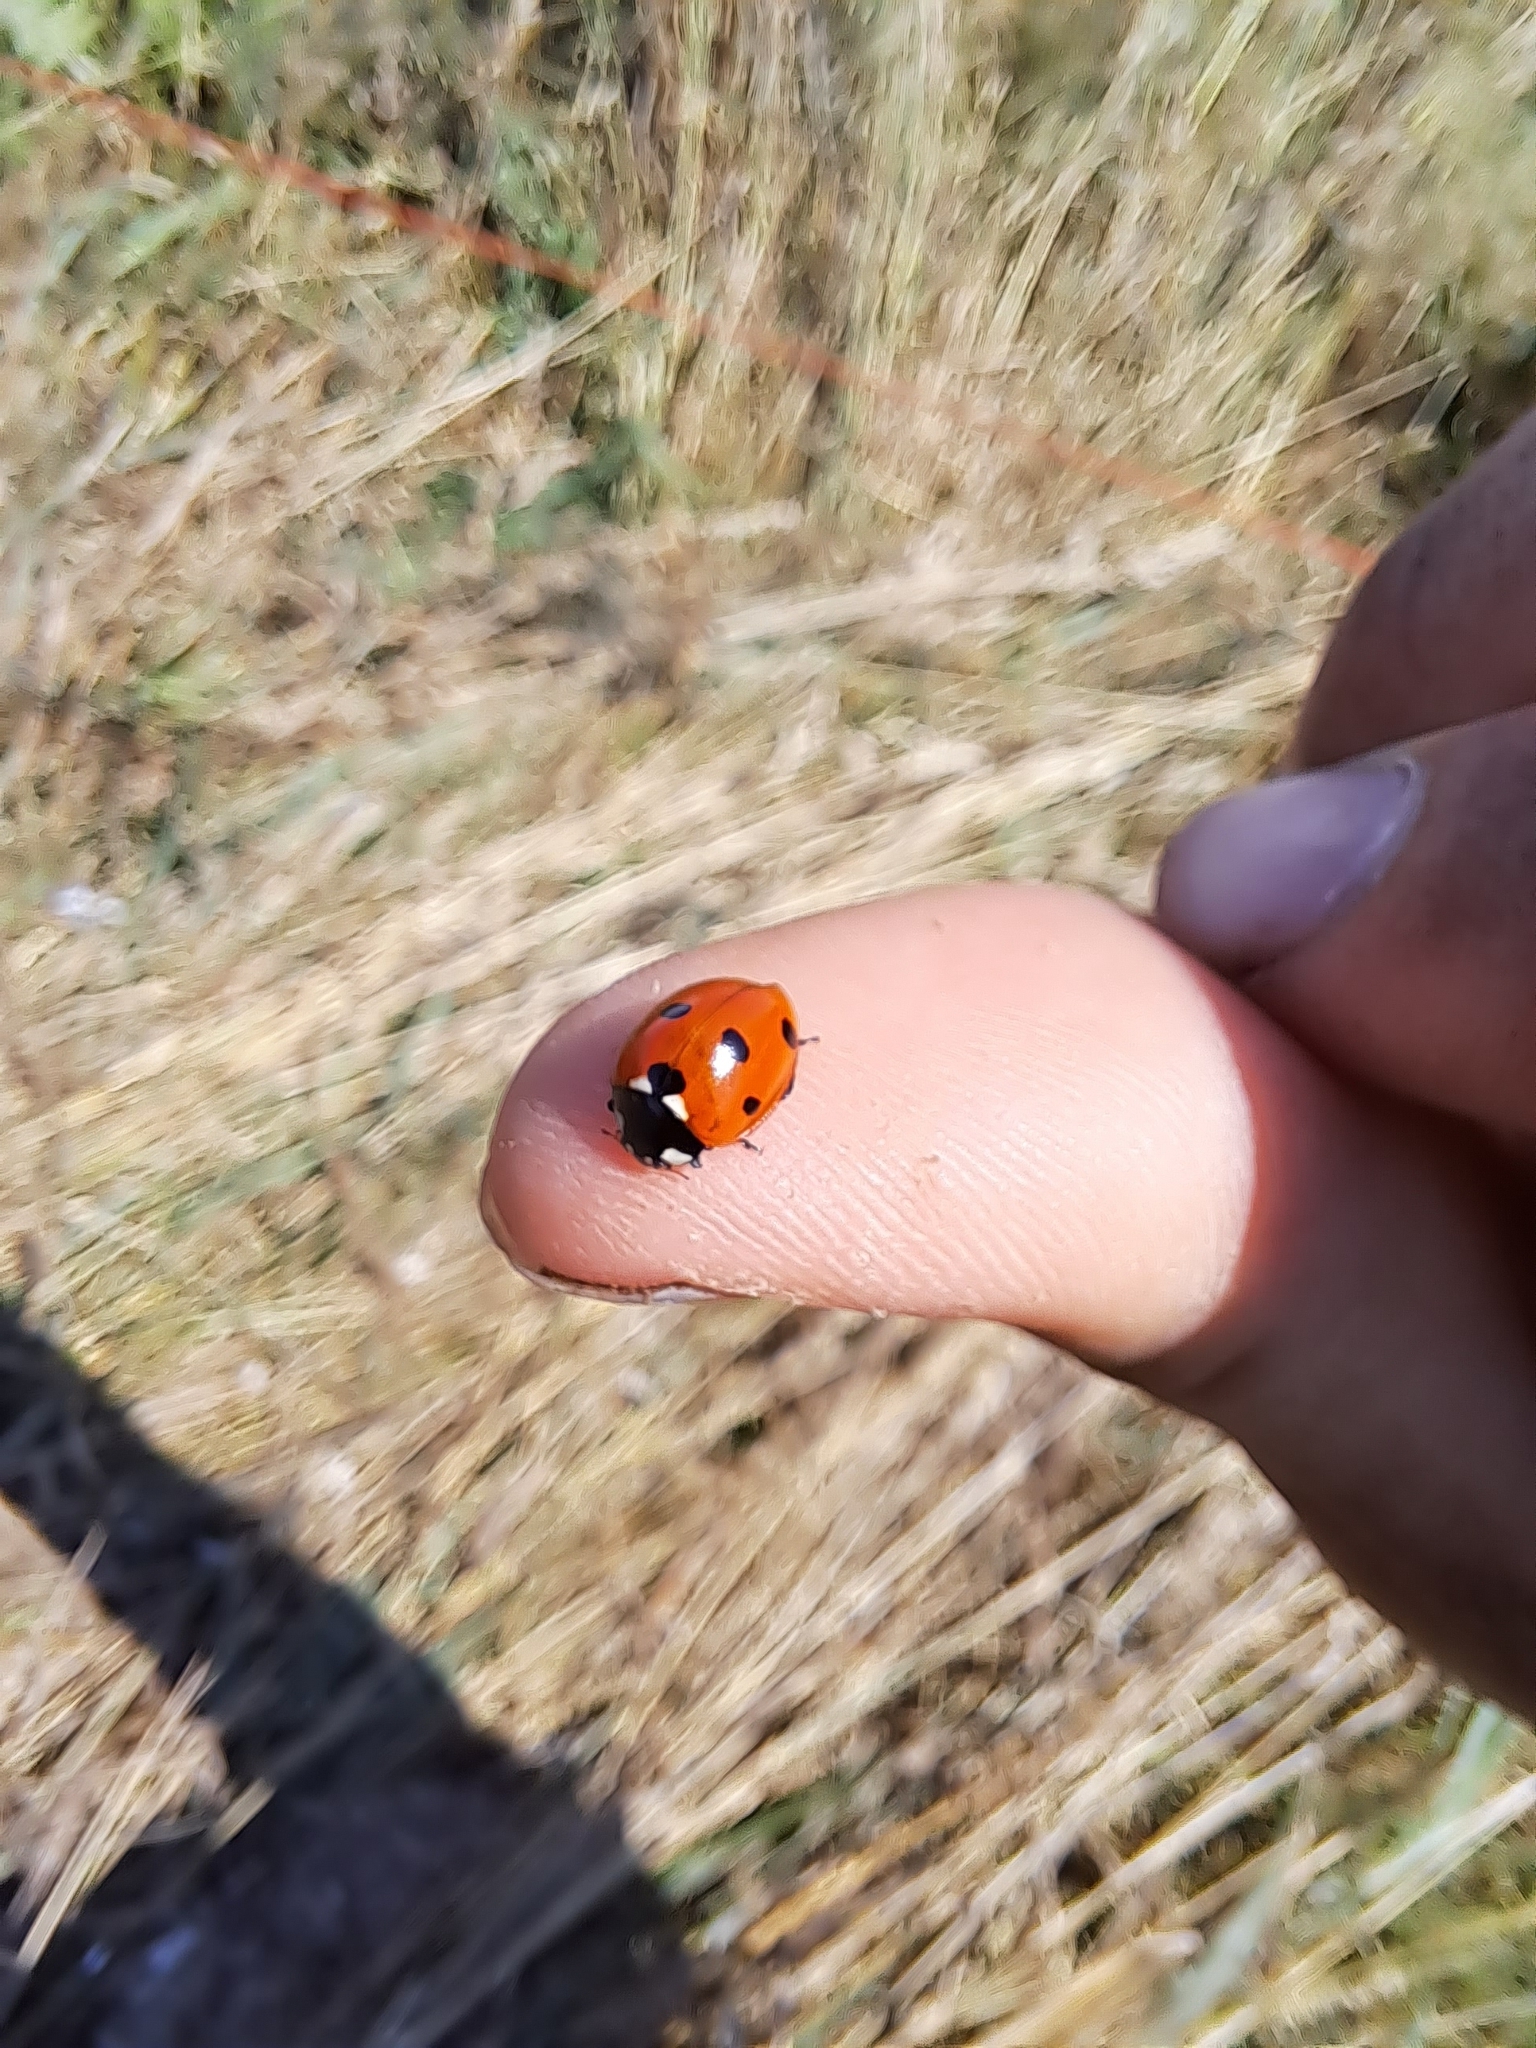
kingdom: Animalia
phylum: Arthropoda
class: Insecta
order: Coleoptera
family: Coccinellidae
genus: Coccinella
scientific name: Coccinella septempunctata
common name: Sevenspotted lady beetle
